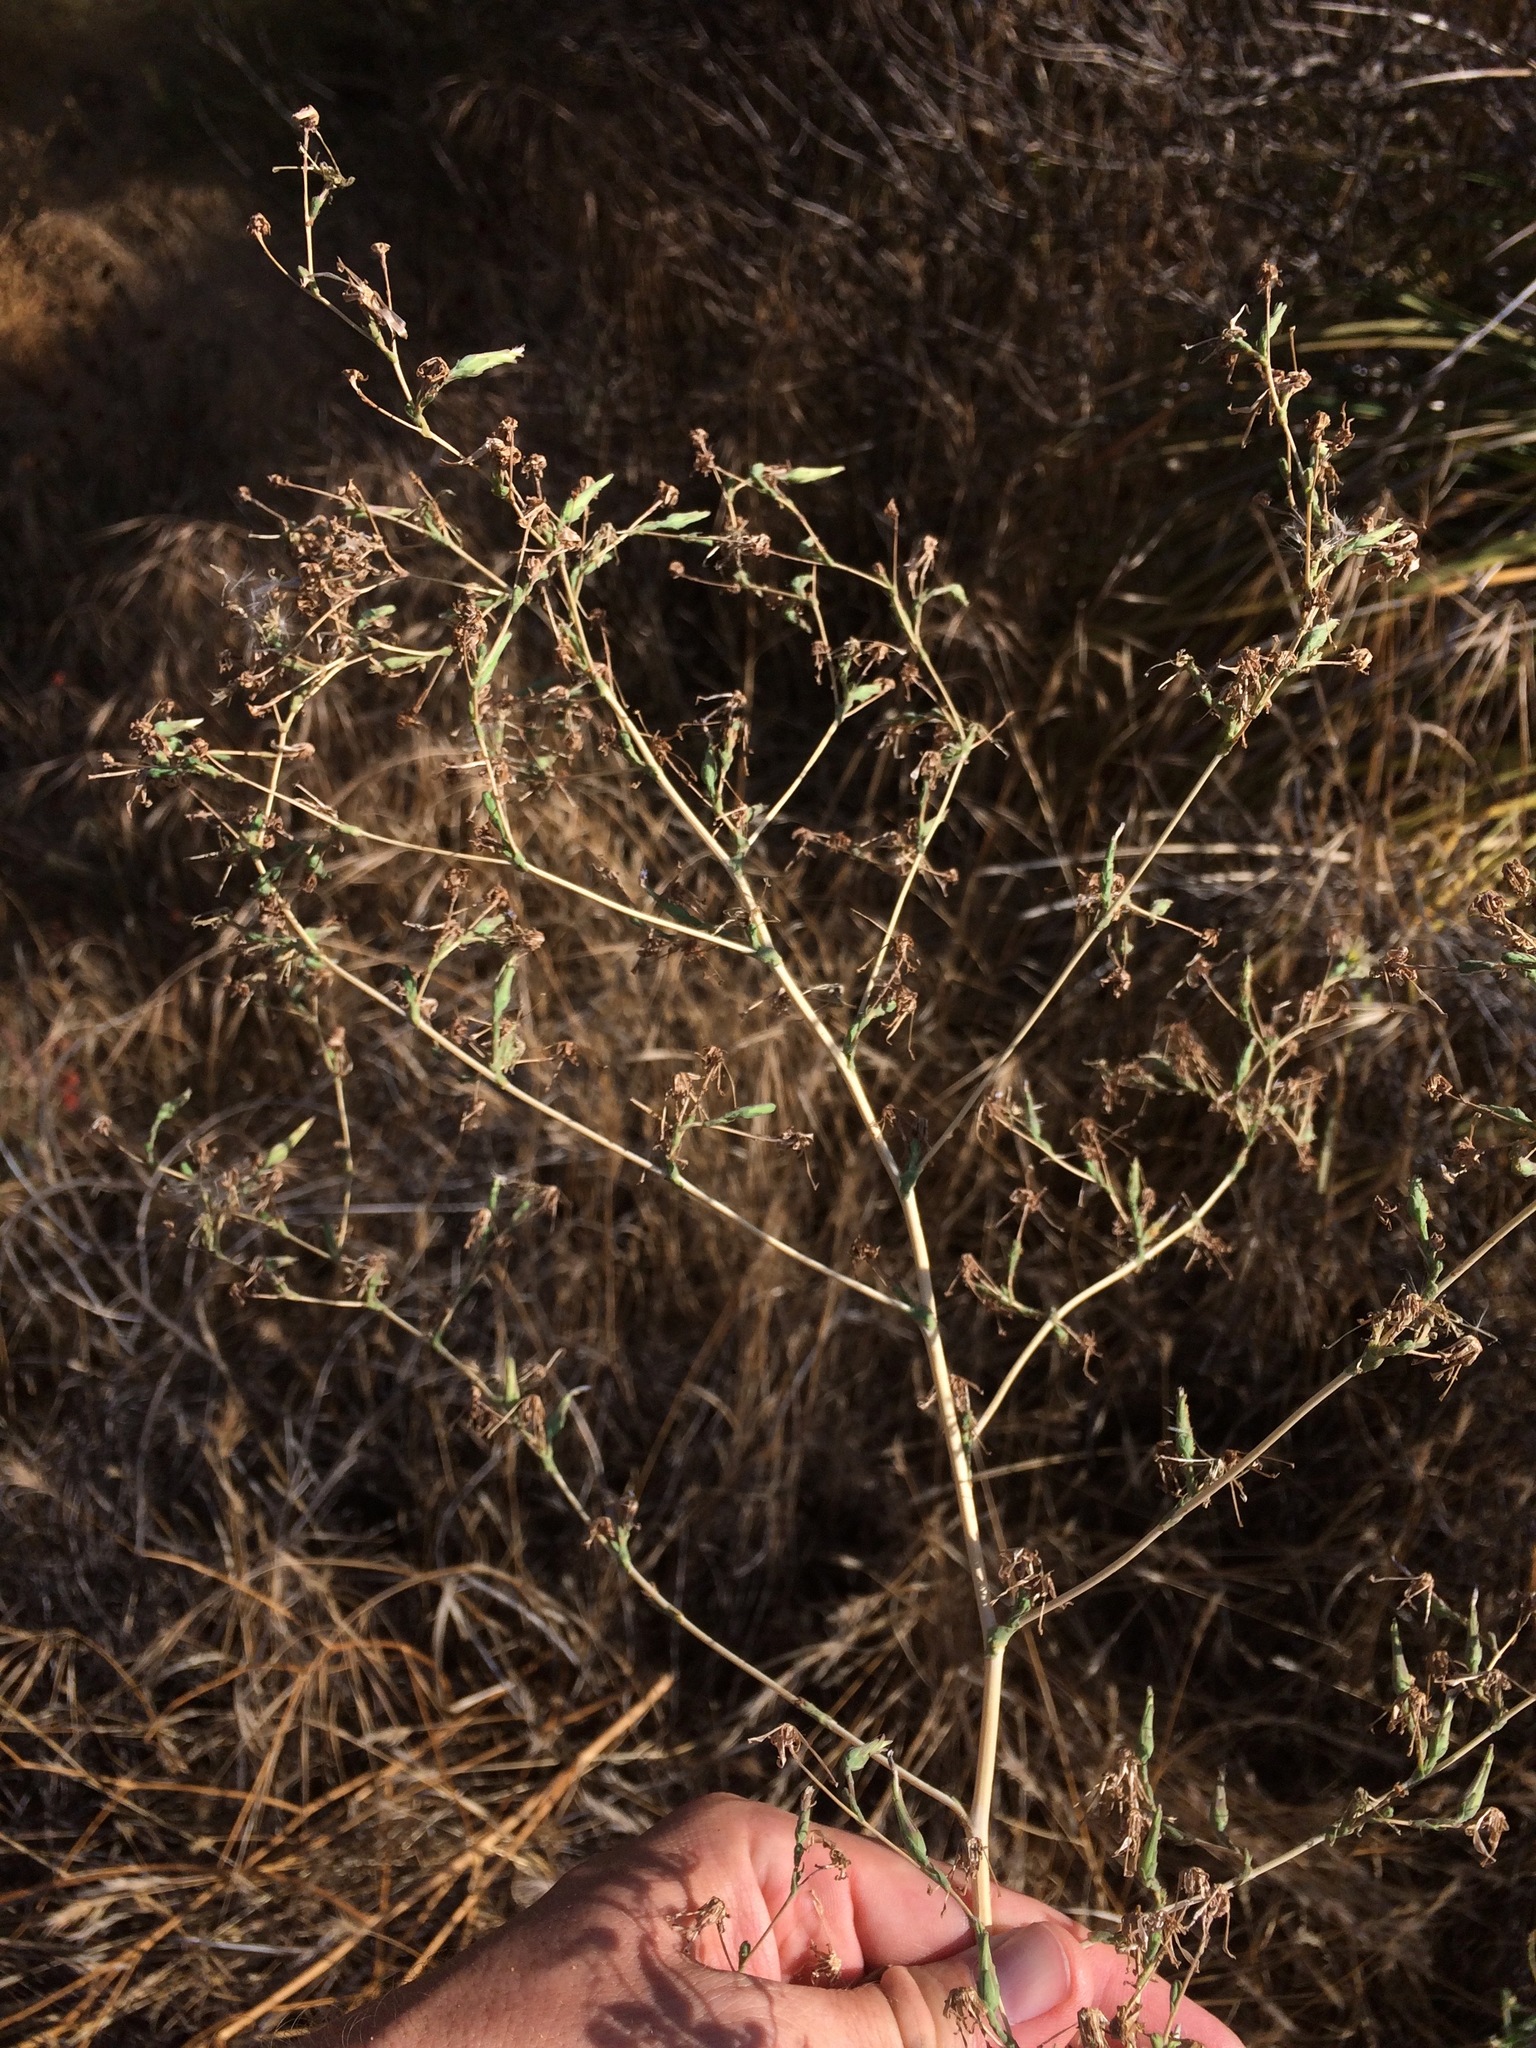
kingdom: Plantae
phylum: Tracheophyta
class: Magnoliopsida
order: Asterales
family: Asteraceae
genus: Lactuca
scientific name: Lactuca serriola
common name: Prickly lettuce
